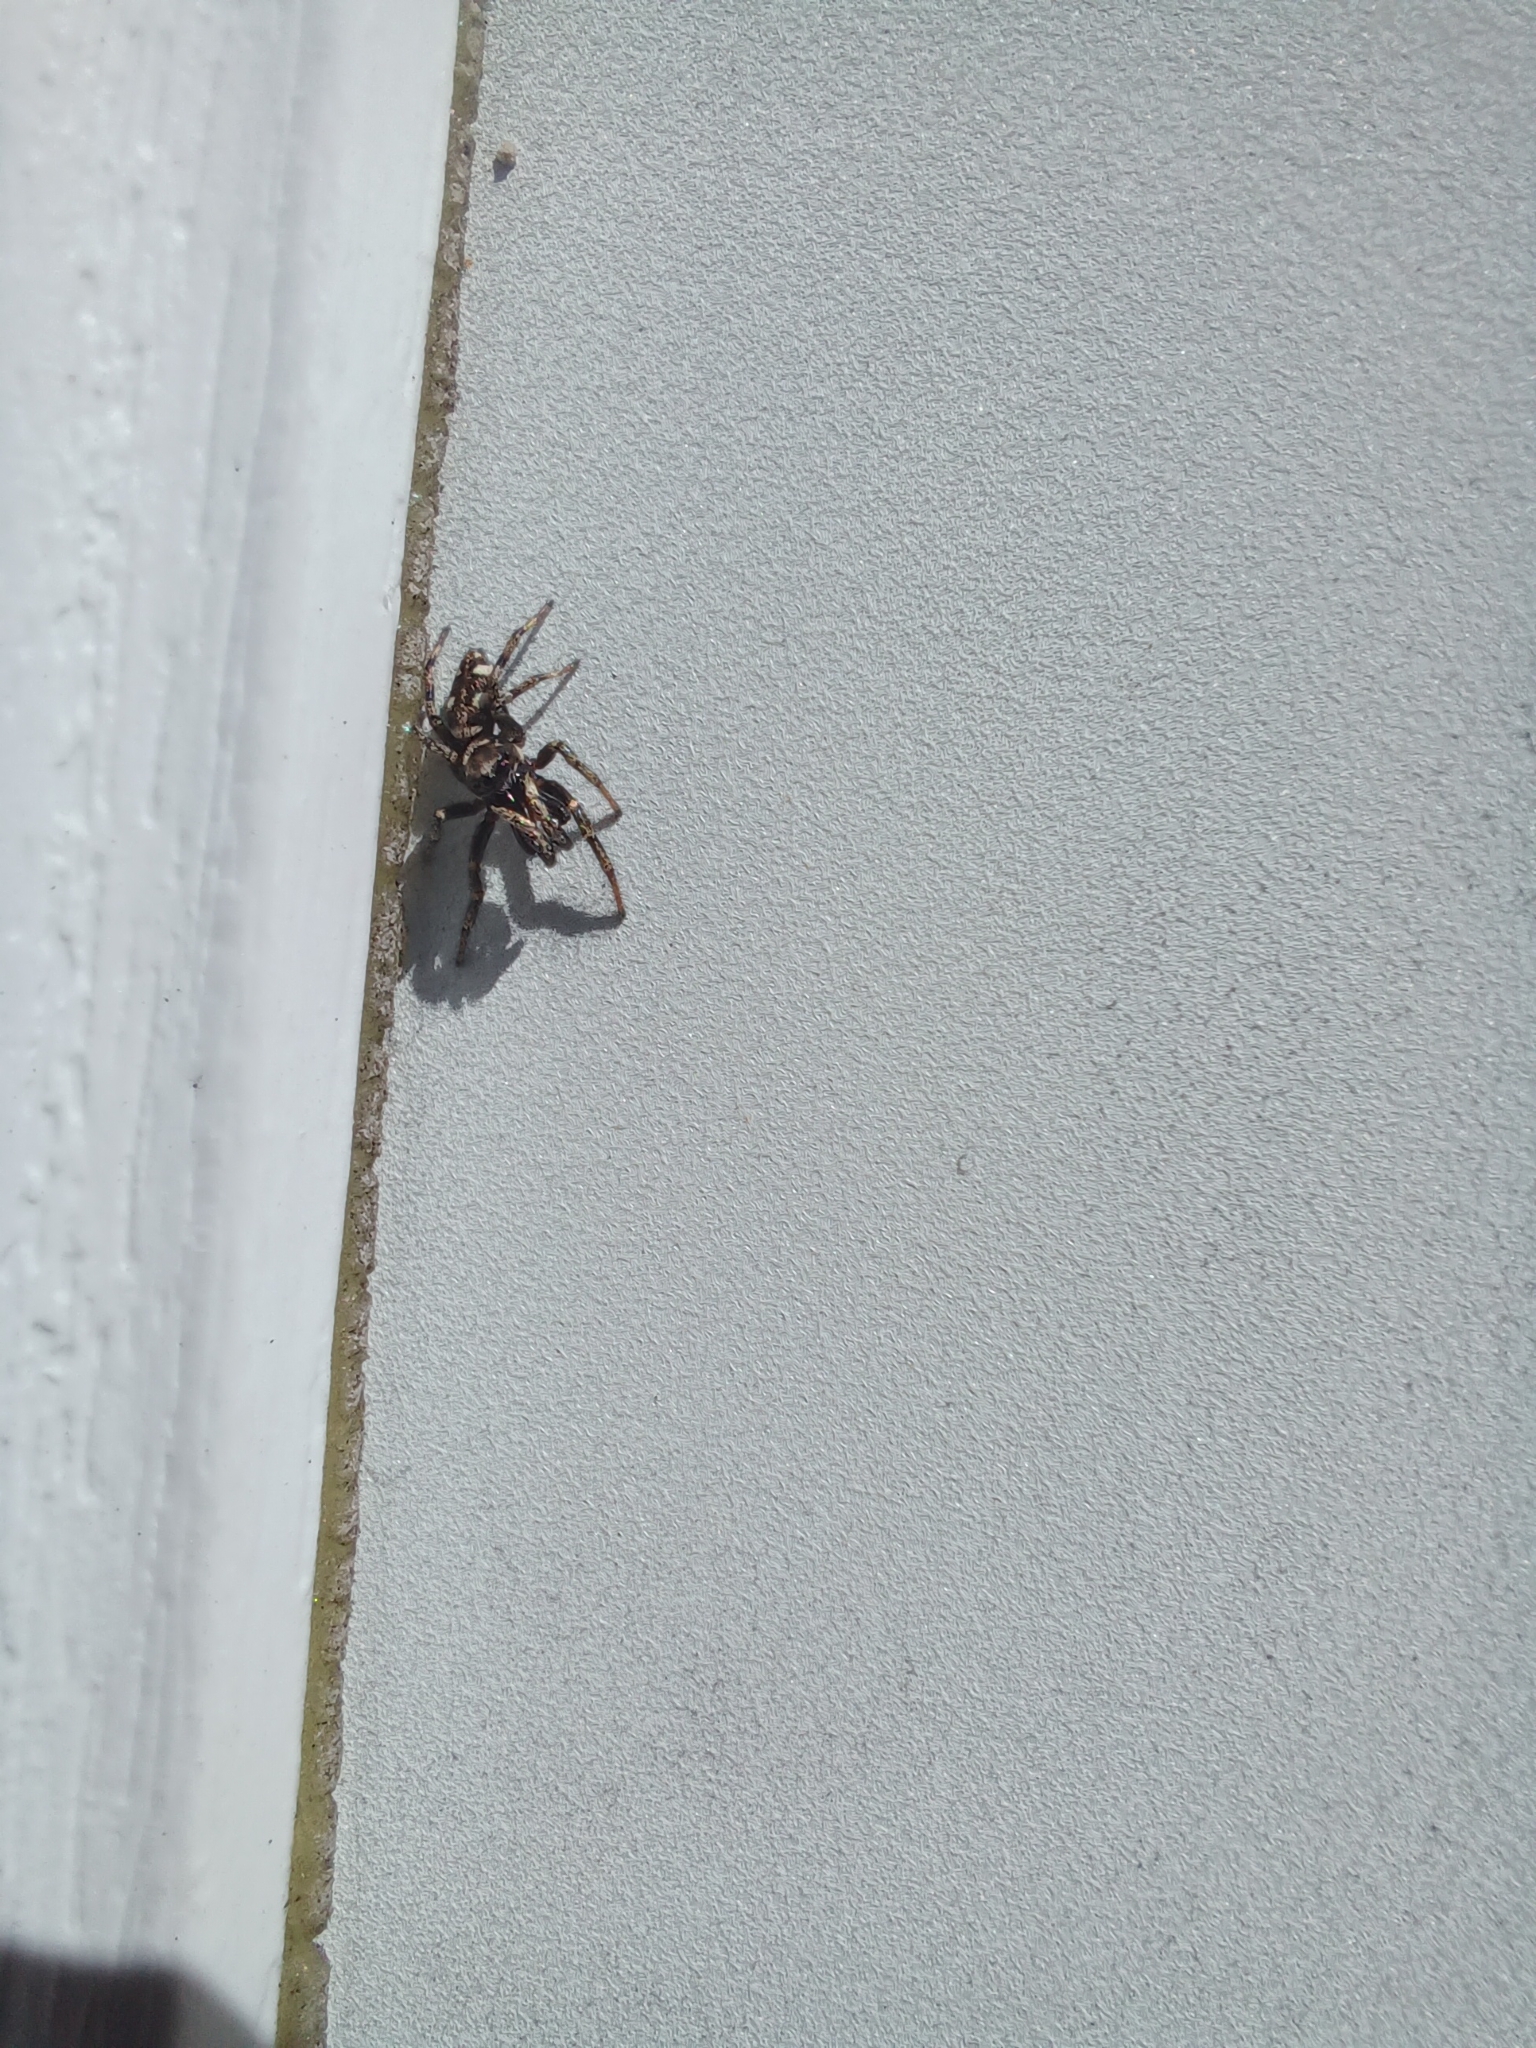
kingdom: Animalia
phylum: Arthropoda
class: Arachnida
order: Araneae
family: Salticidae
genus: Salticus
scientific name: Salticus scenicus
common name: Zebra jumper
